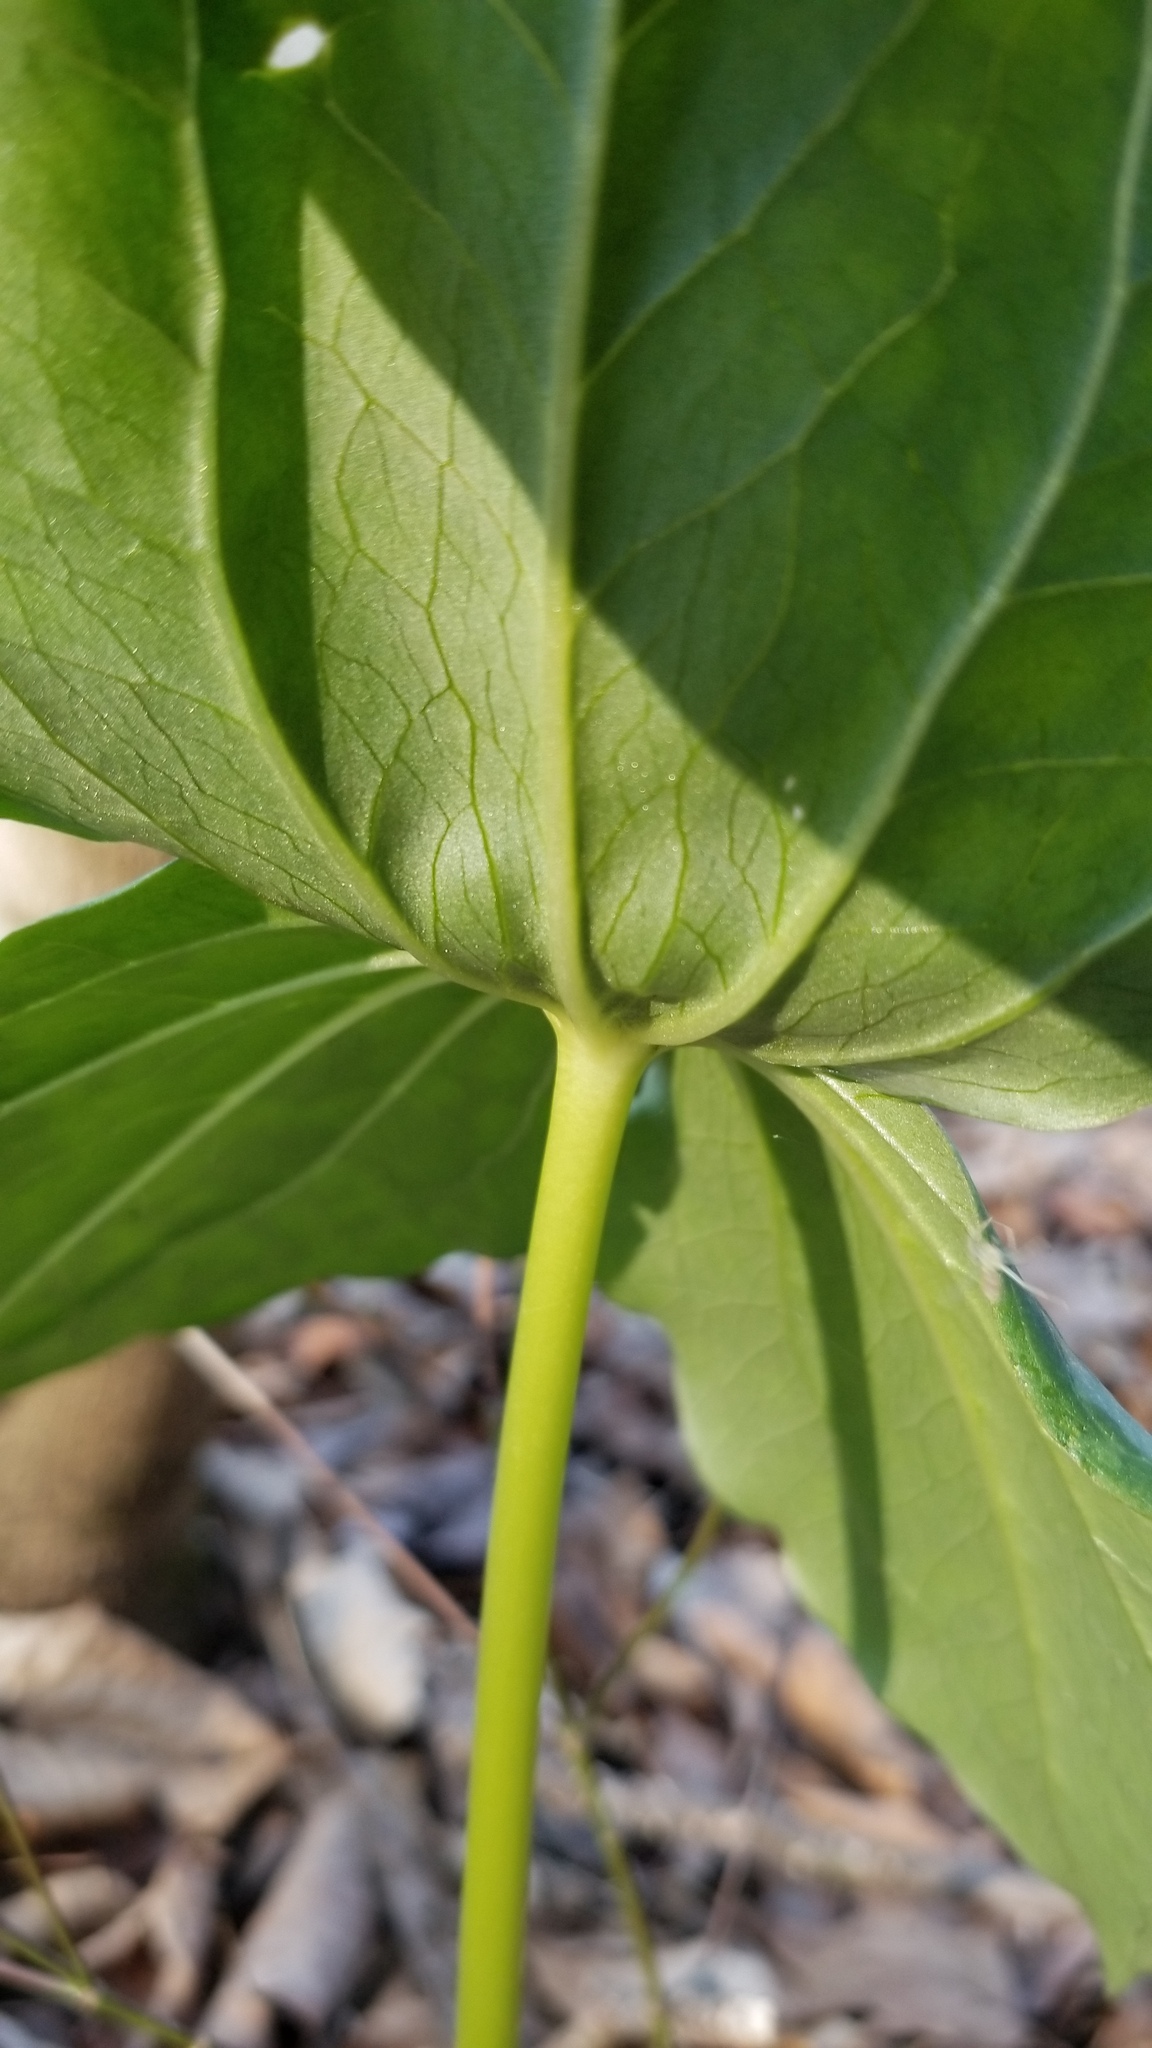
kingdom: Plantae
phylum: Tracheophyta
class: Liliopsida
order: Liliales
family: Melanthiaceae
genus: Trillium
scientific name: Trillium cuneatum
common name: Cuneate trillium
